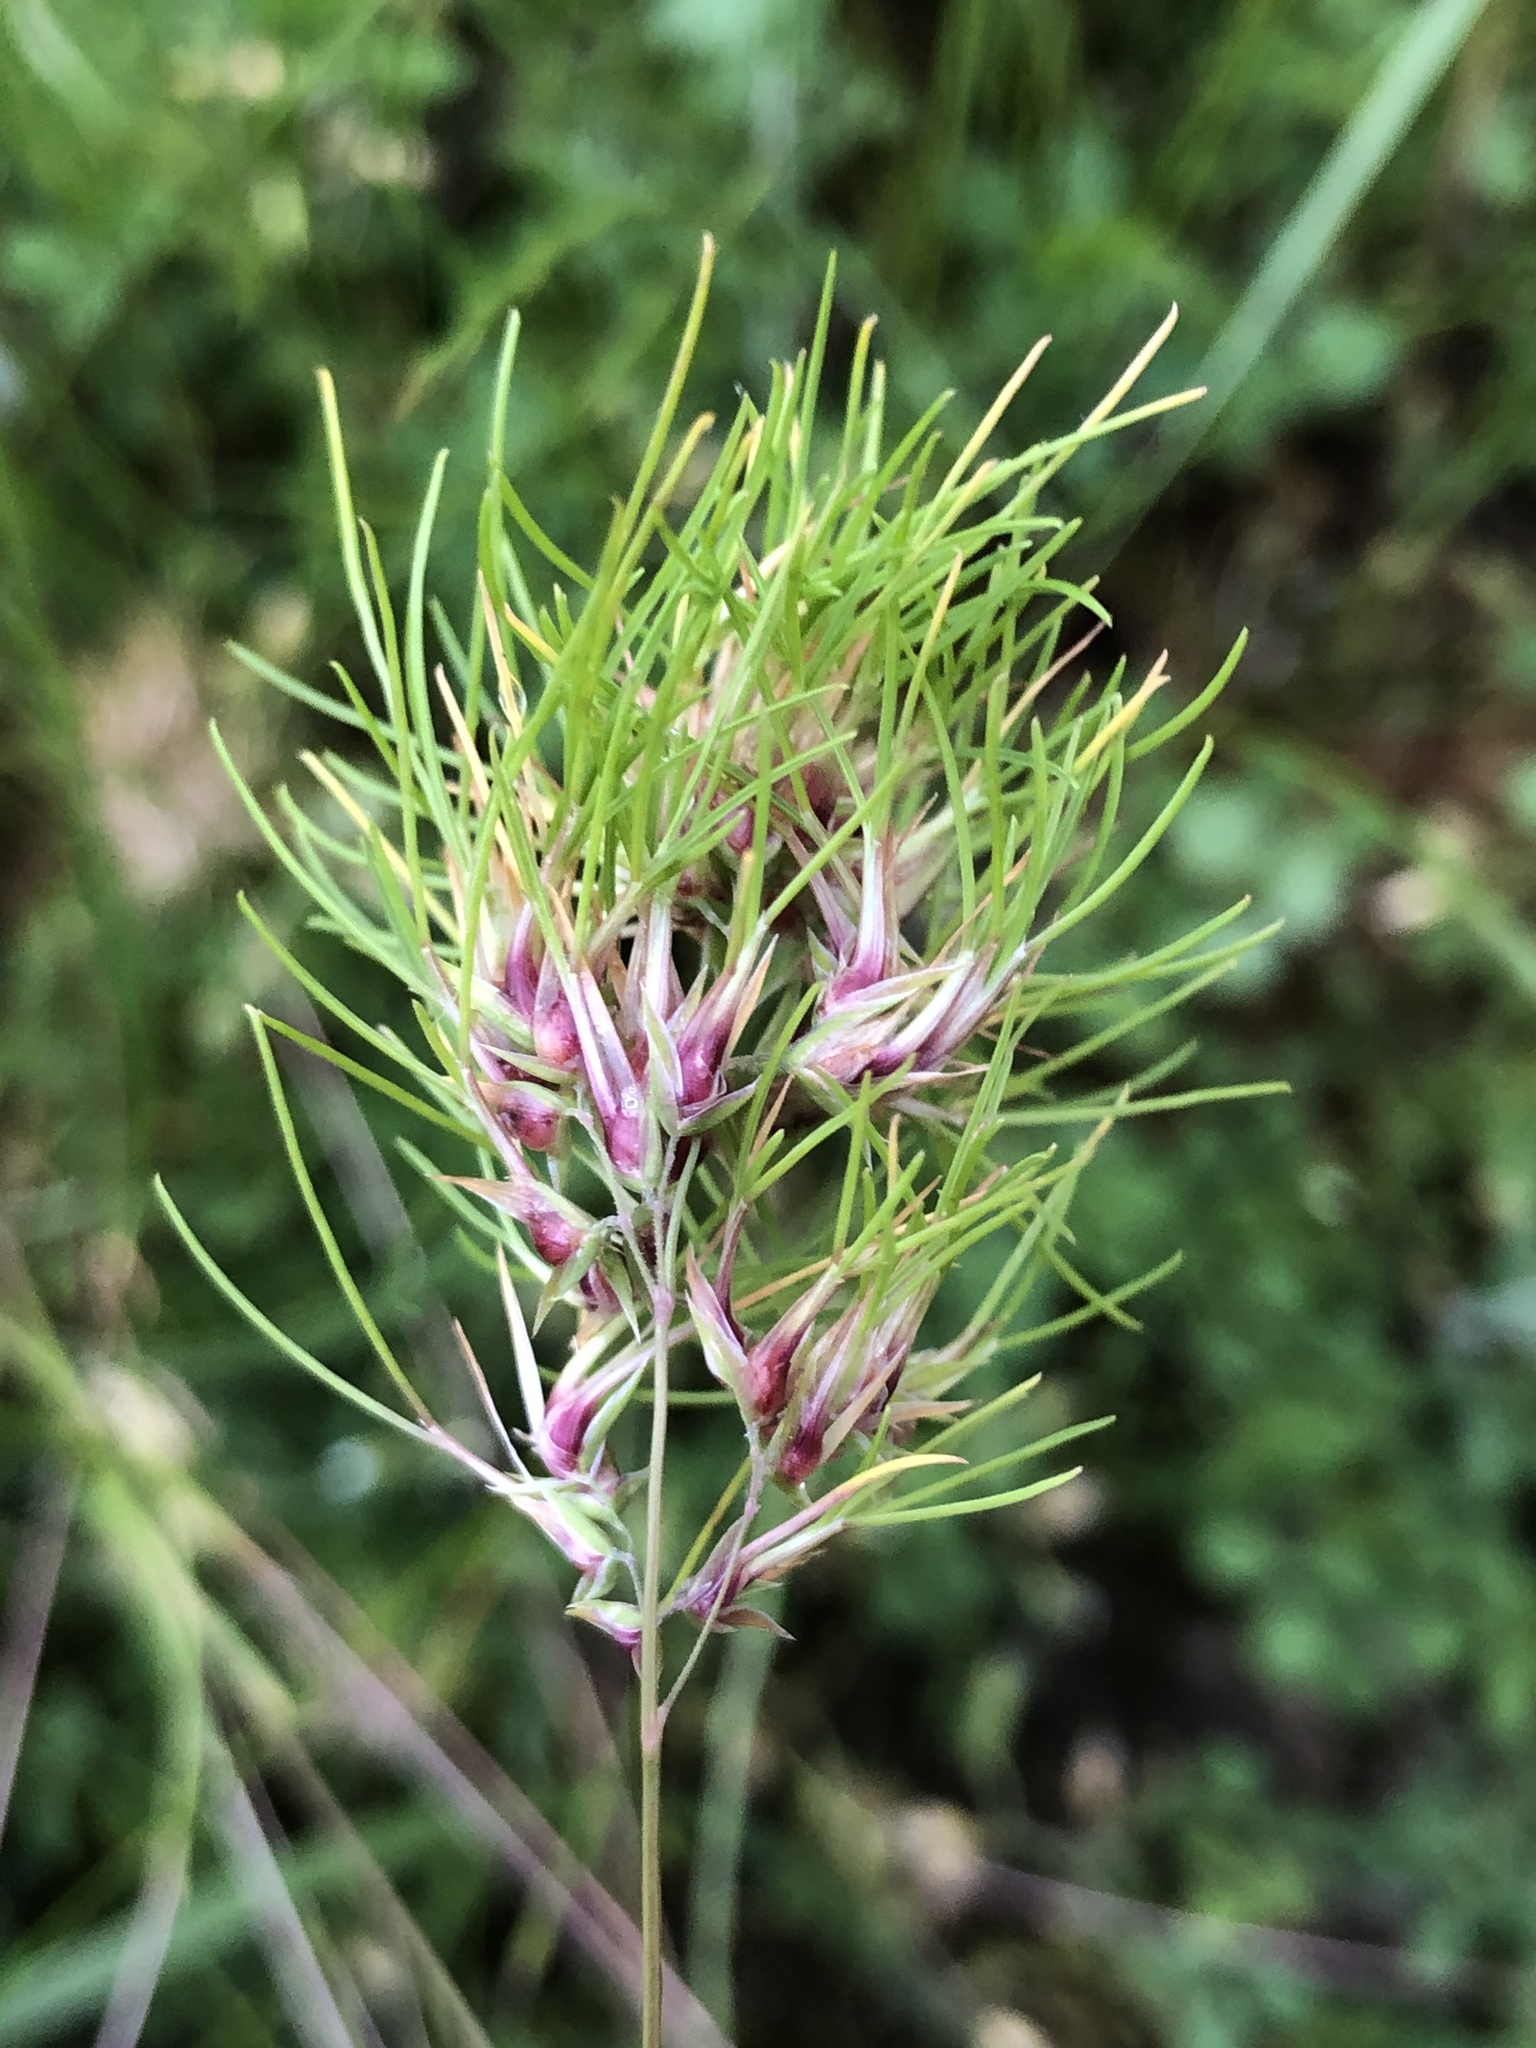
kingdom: Plantae
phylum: Tracheophyta
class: Liliopsida
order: Poales
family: Poaceae
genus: Poa
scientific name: Poa bulbosa
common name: Bulbous bluegrass
